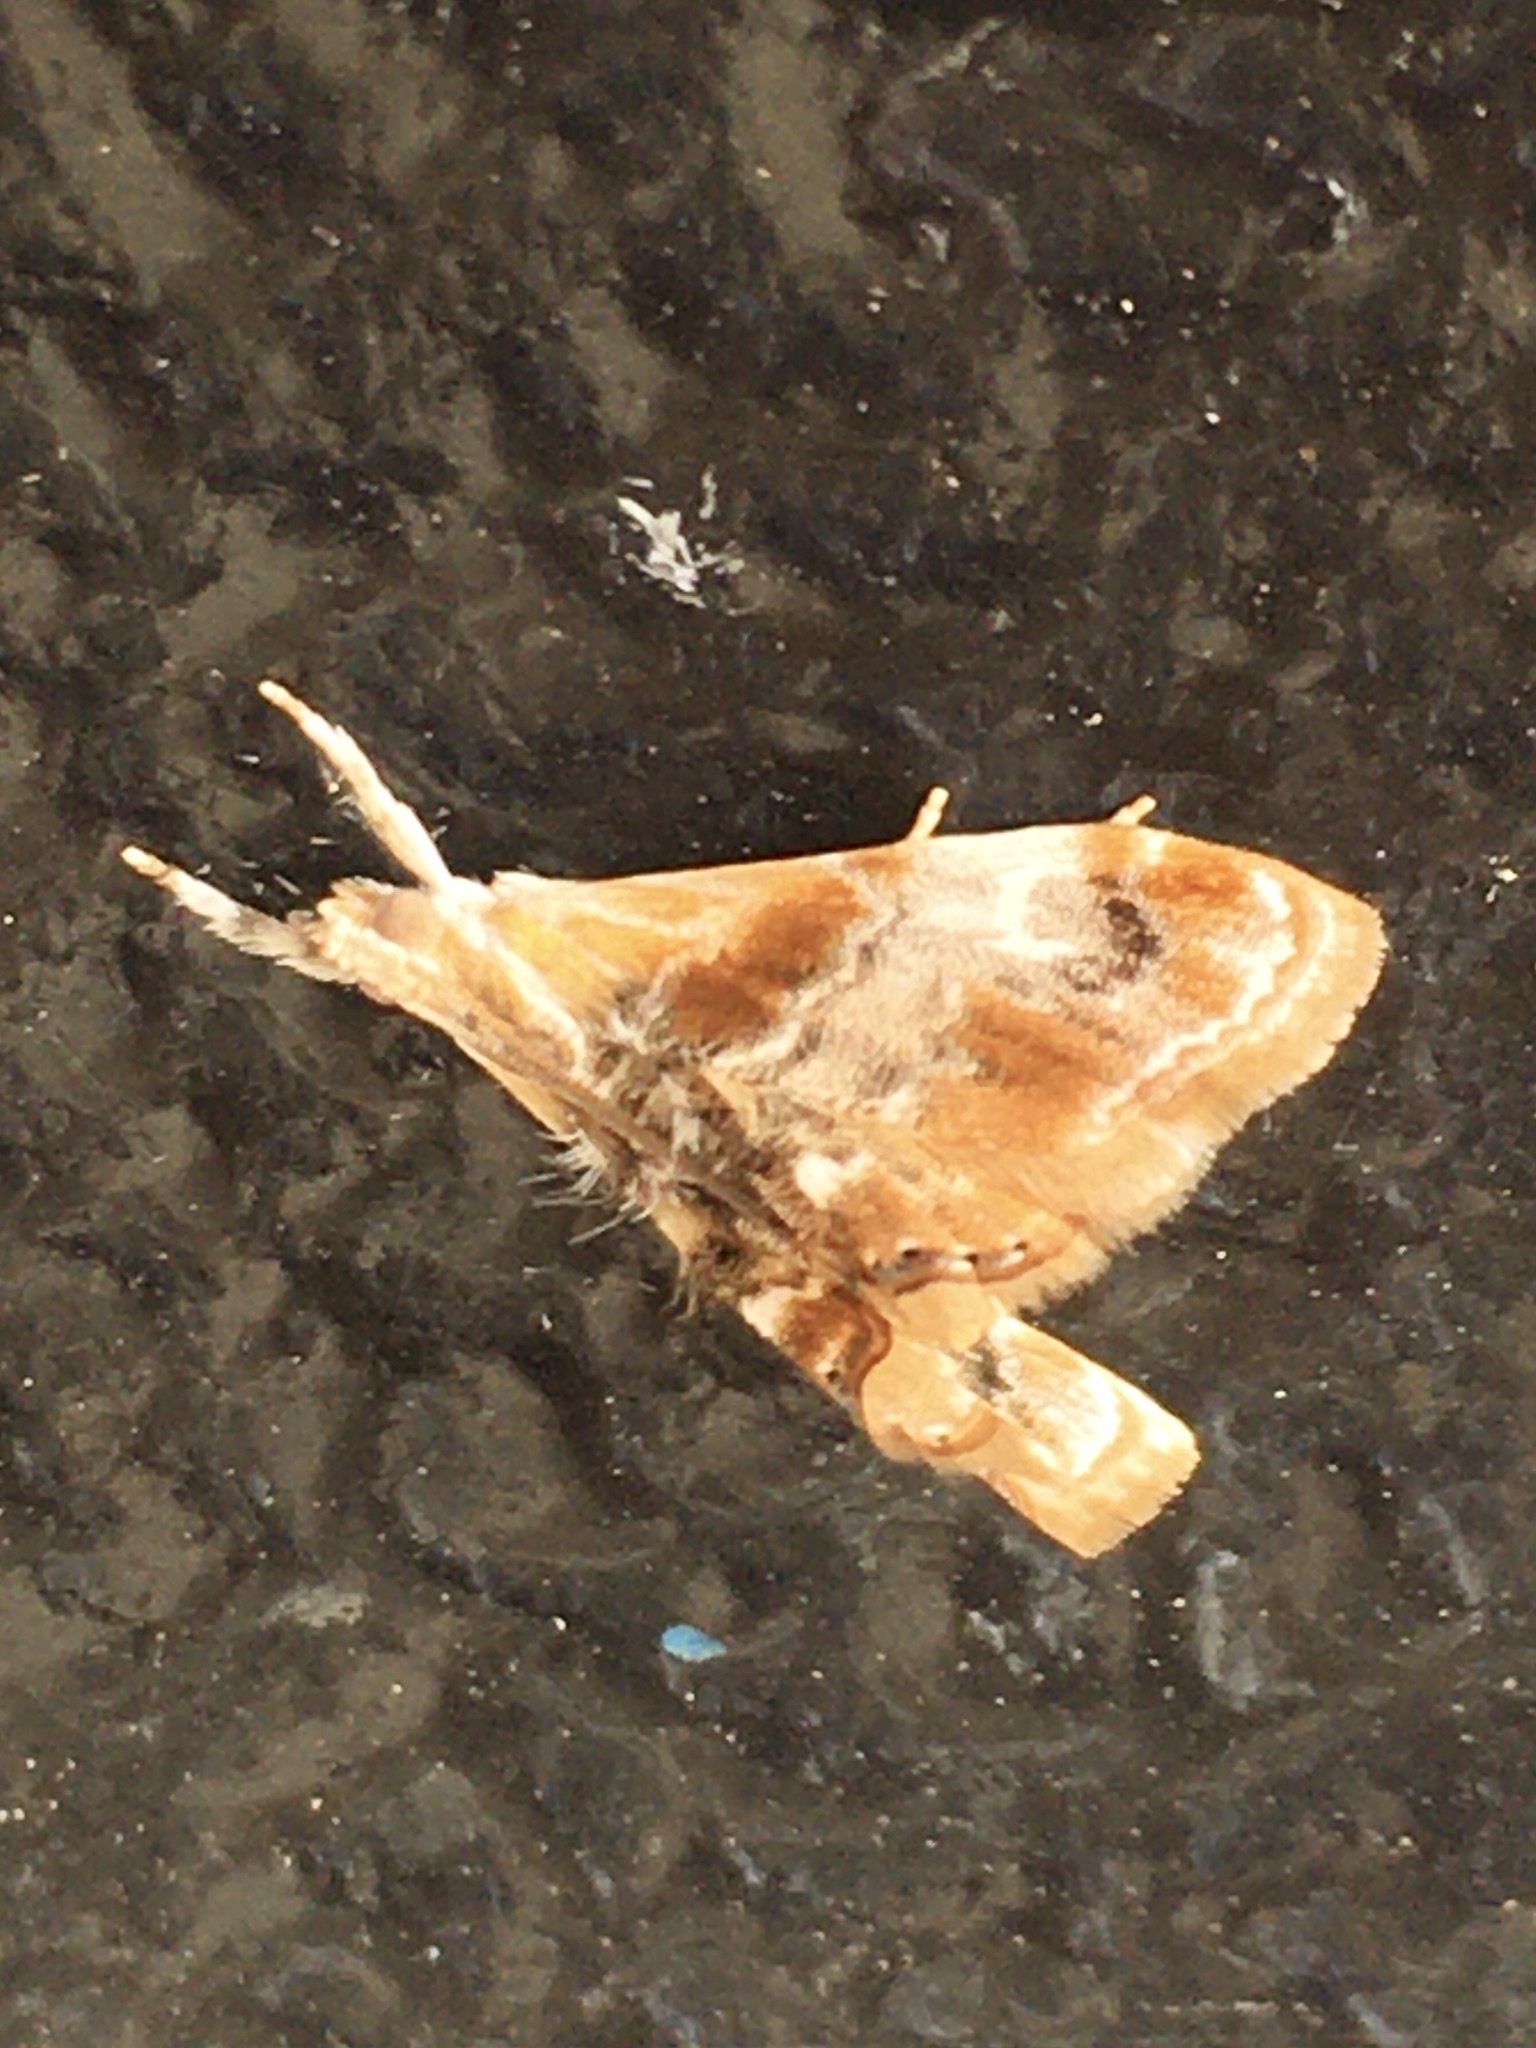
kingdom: Animalia
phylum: Arthropoda
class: Insecta
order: Lepidoptera
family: Crambidae
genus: Dicymolomia
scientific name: Dicymolomia julianalis
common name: Julia's dicymolomia moth
